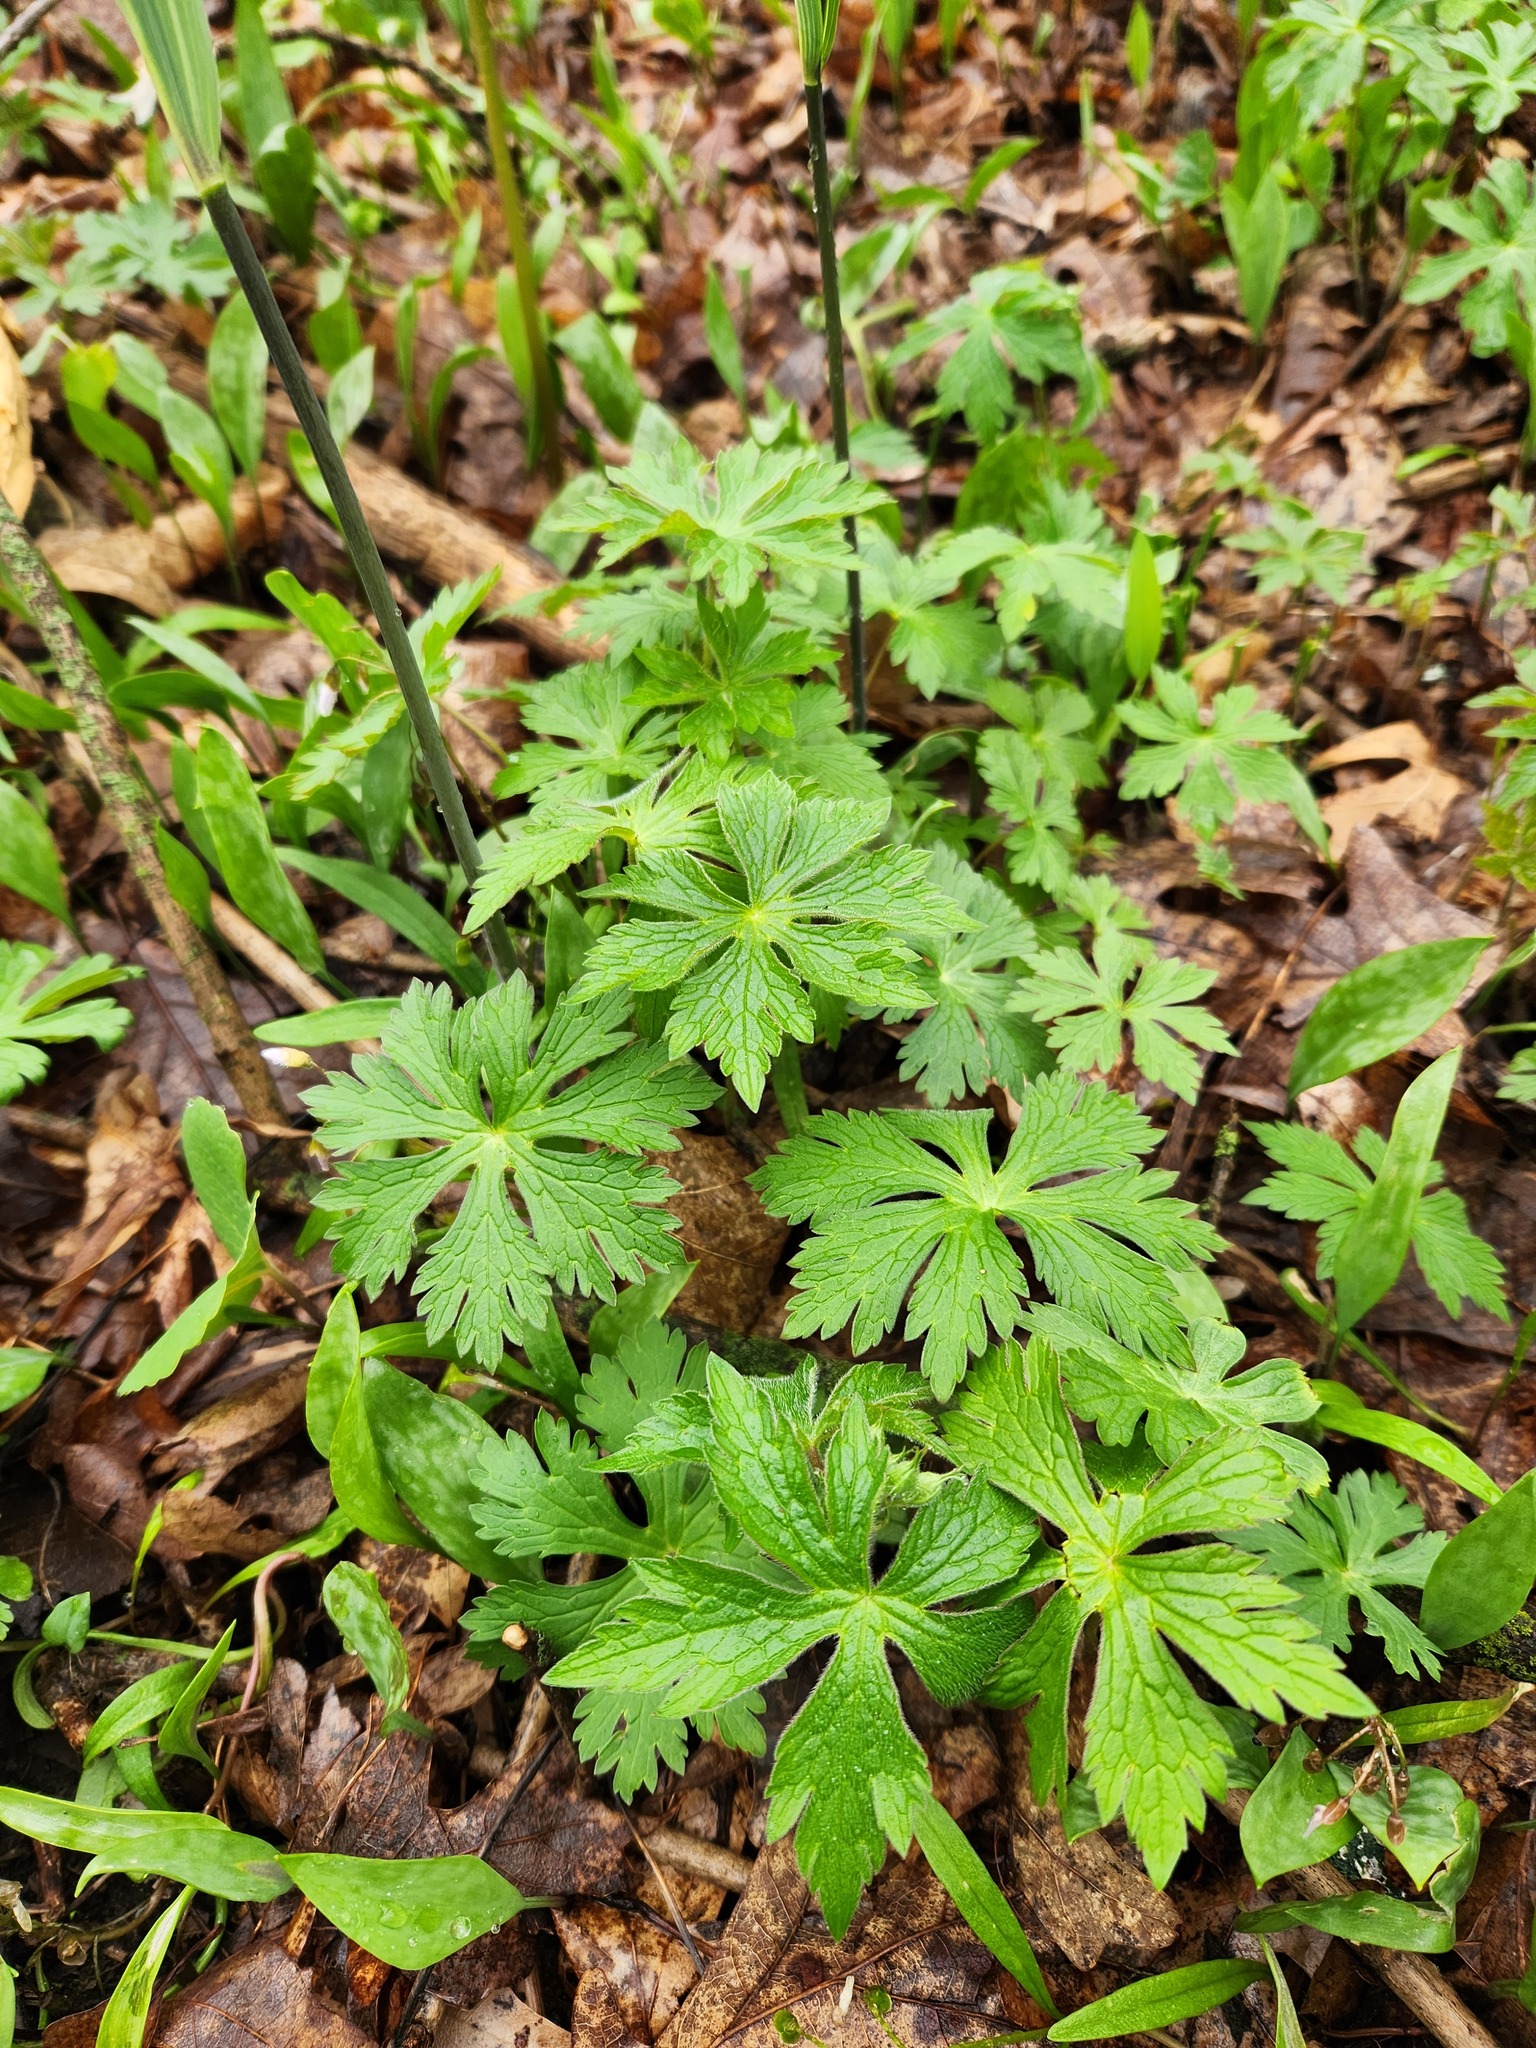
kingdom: Plantae
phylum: Tracheophyta
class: Magnoliopsida
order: Geraniales
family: Geraniaceae
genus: Geranium
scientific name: Geranium maculatum
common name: Spotted geranium
